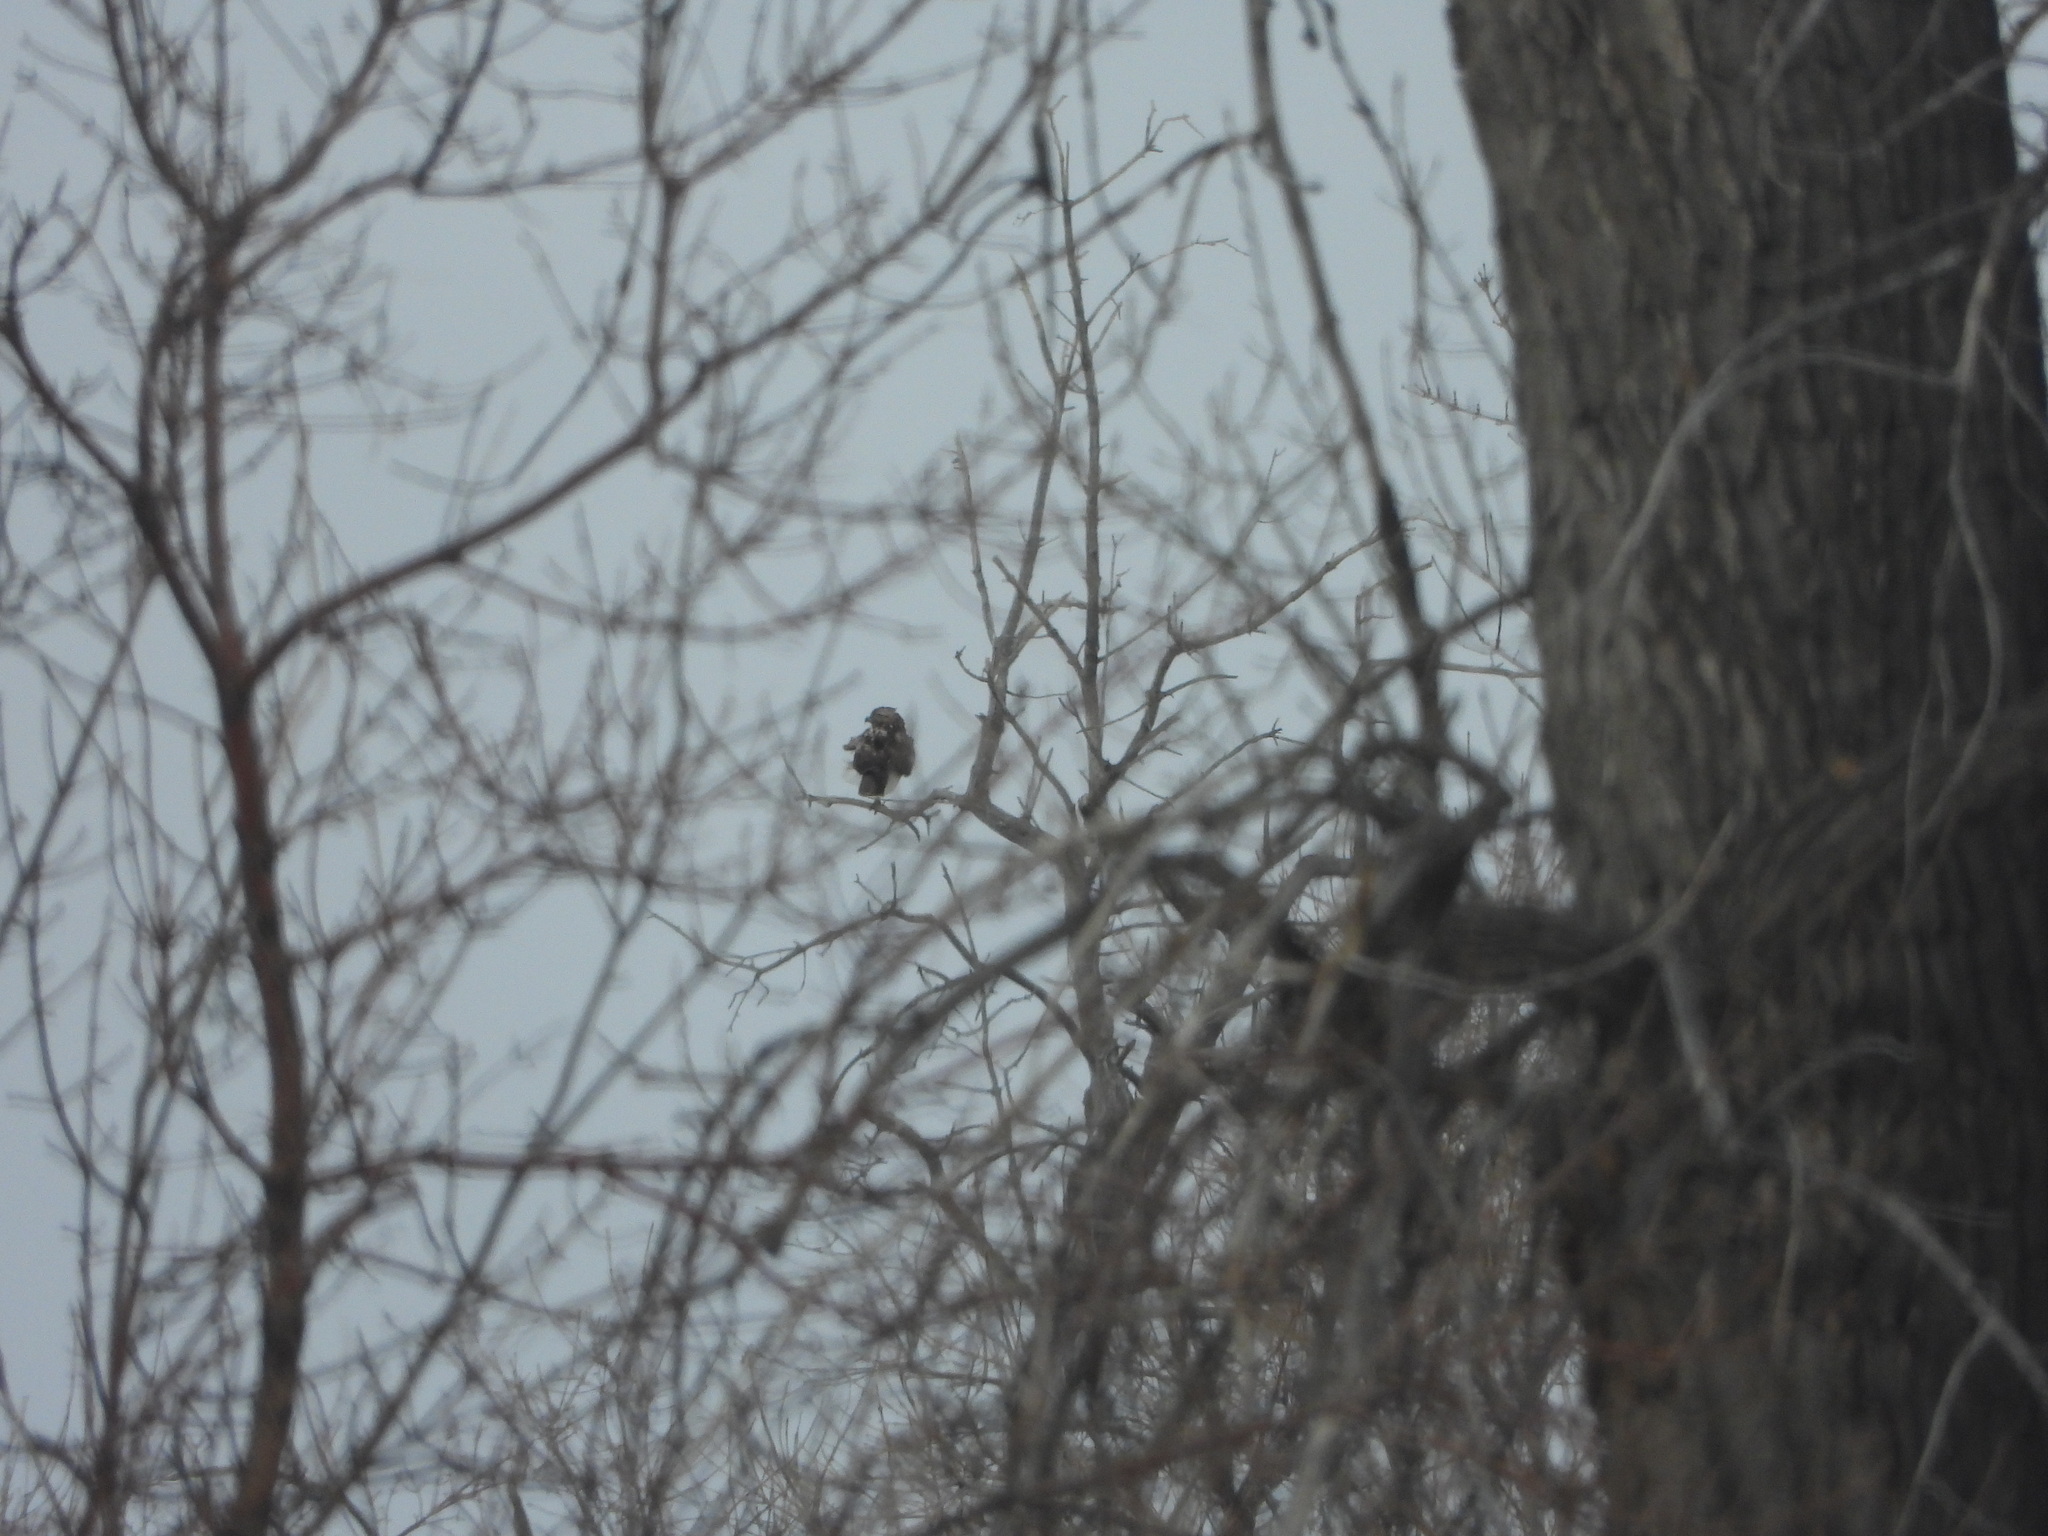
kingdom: Animalia
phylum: Chordata
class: Aves
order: Accipitriformes
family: Accipitridae
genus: Buteo
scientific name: Buteo jamaicensis
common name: Red-tailed hawk
